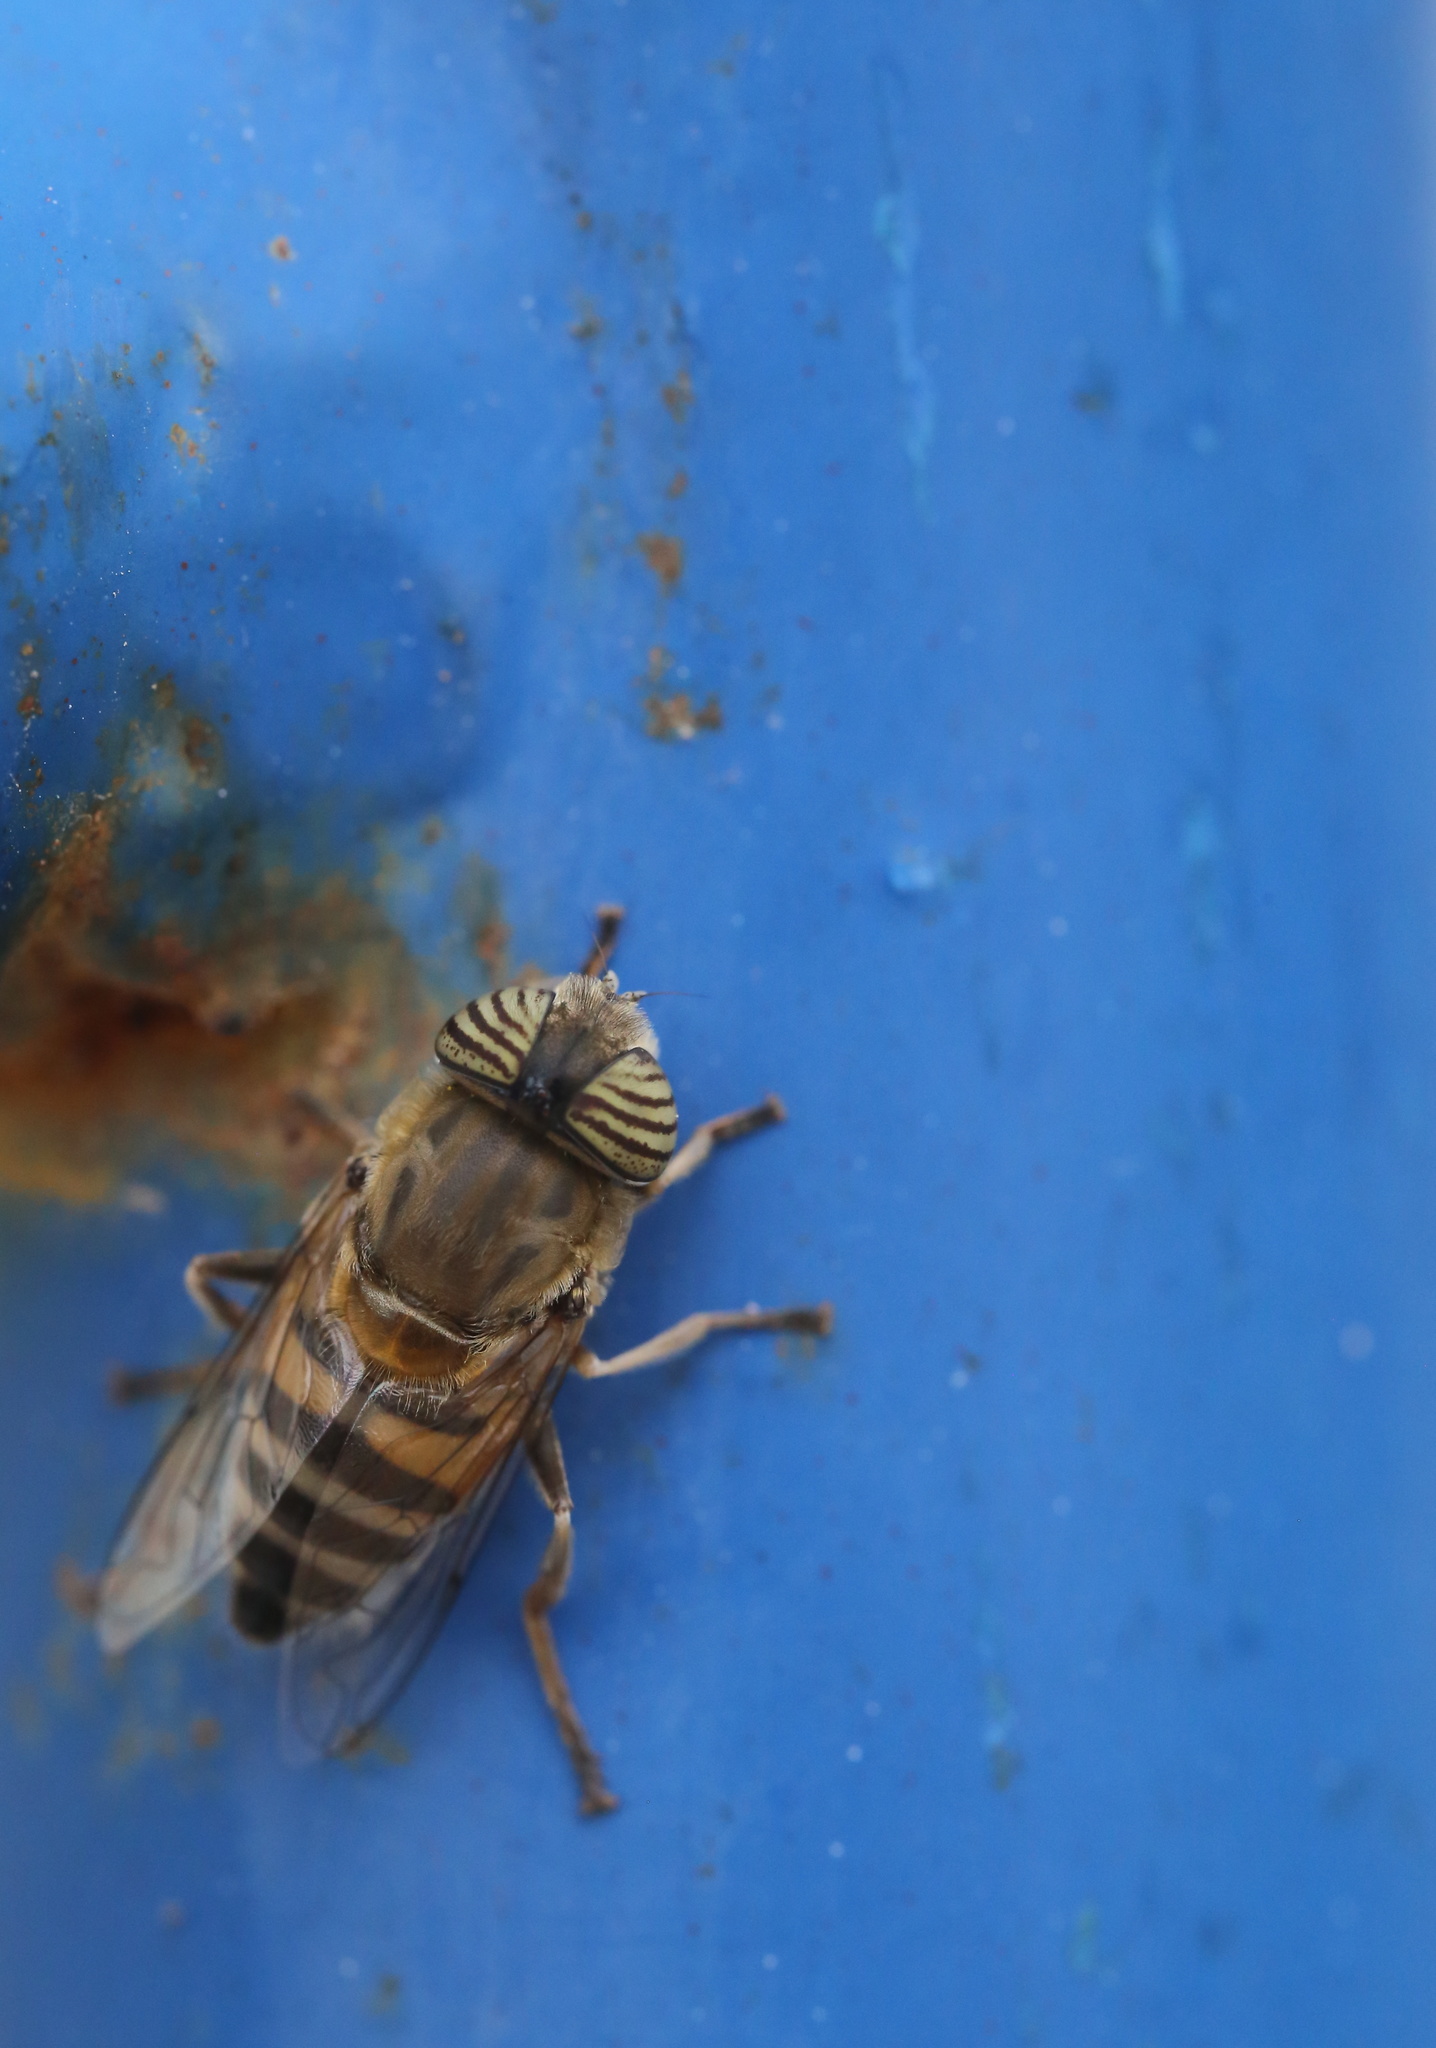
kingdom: Animalia
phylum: Arthropoda
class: Insecta
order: Diptera
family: Syrphidae
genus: Eristalinus
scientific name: Eristalinus taeniops
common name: Syrphid fly
